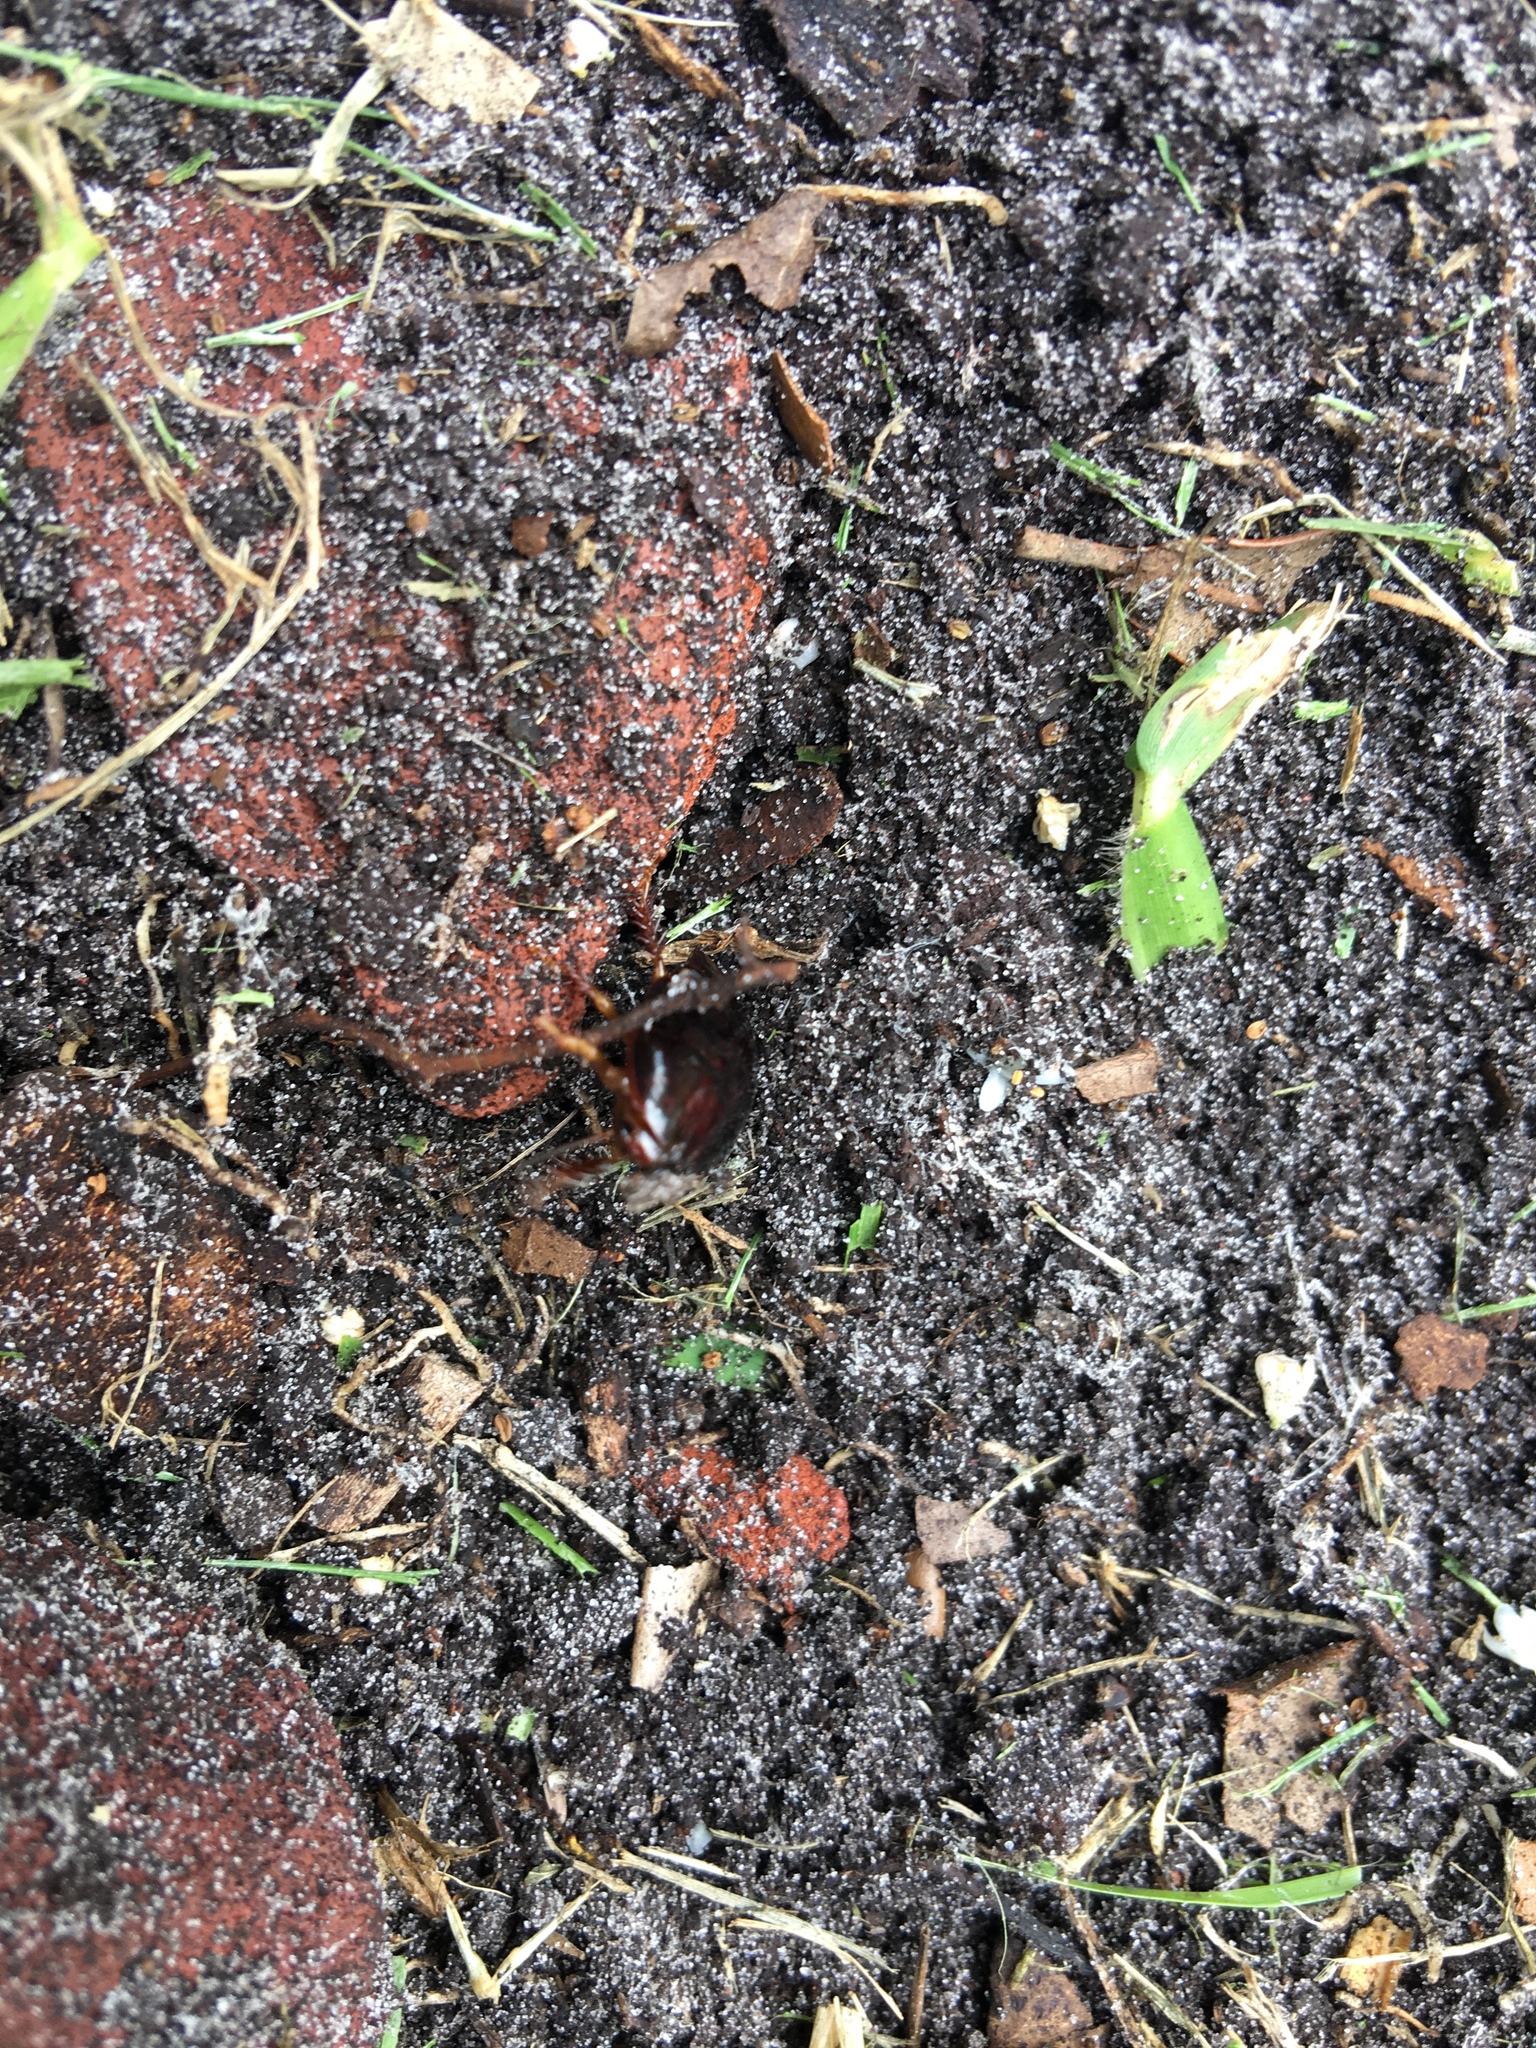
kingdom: Animalia
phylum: Arthropoda
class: Insecta
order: Blattodea
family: Blaberidae
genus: Pycnoscelus
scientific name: Pycnoscelus surinamensis
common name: Surinam cockroach
